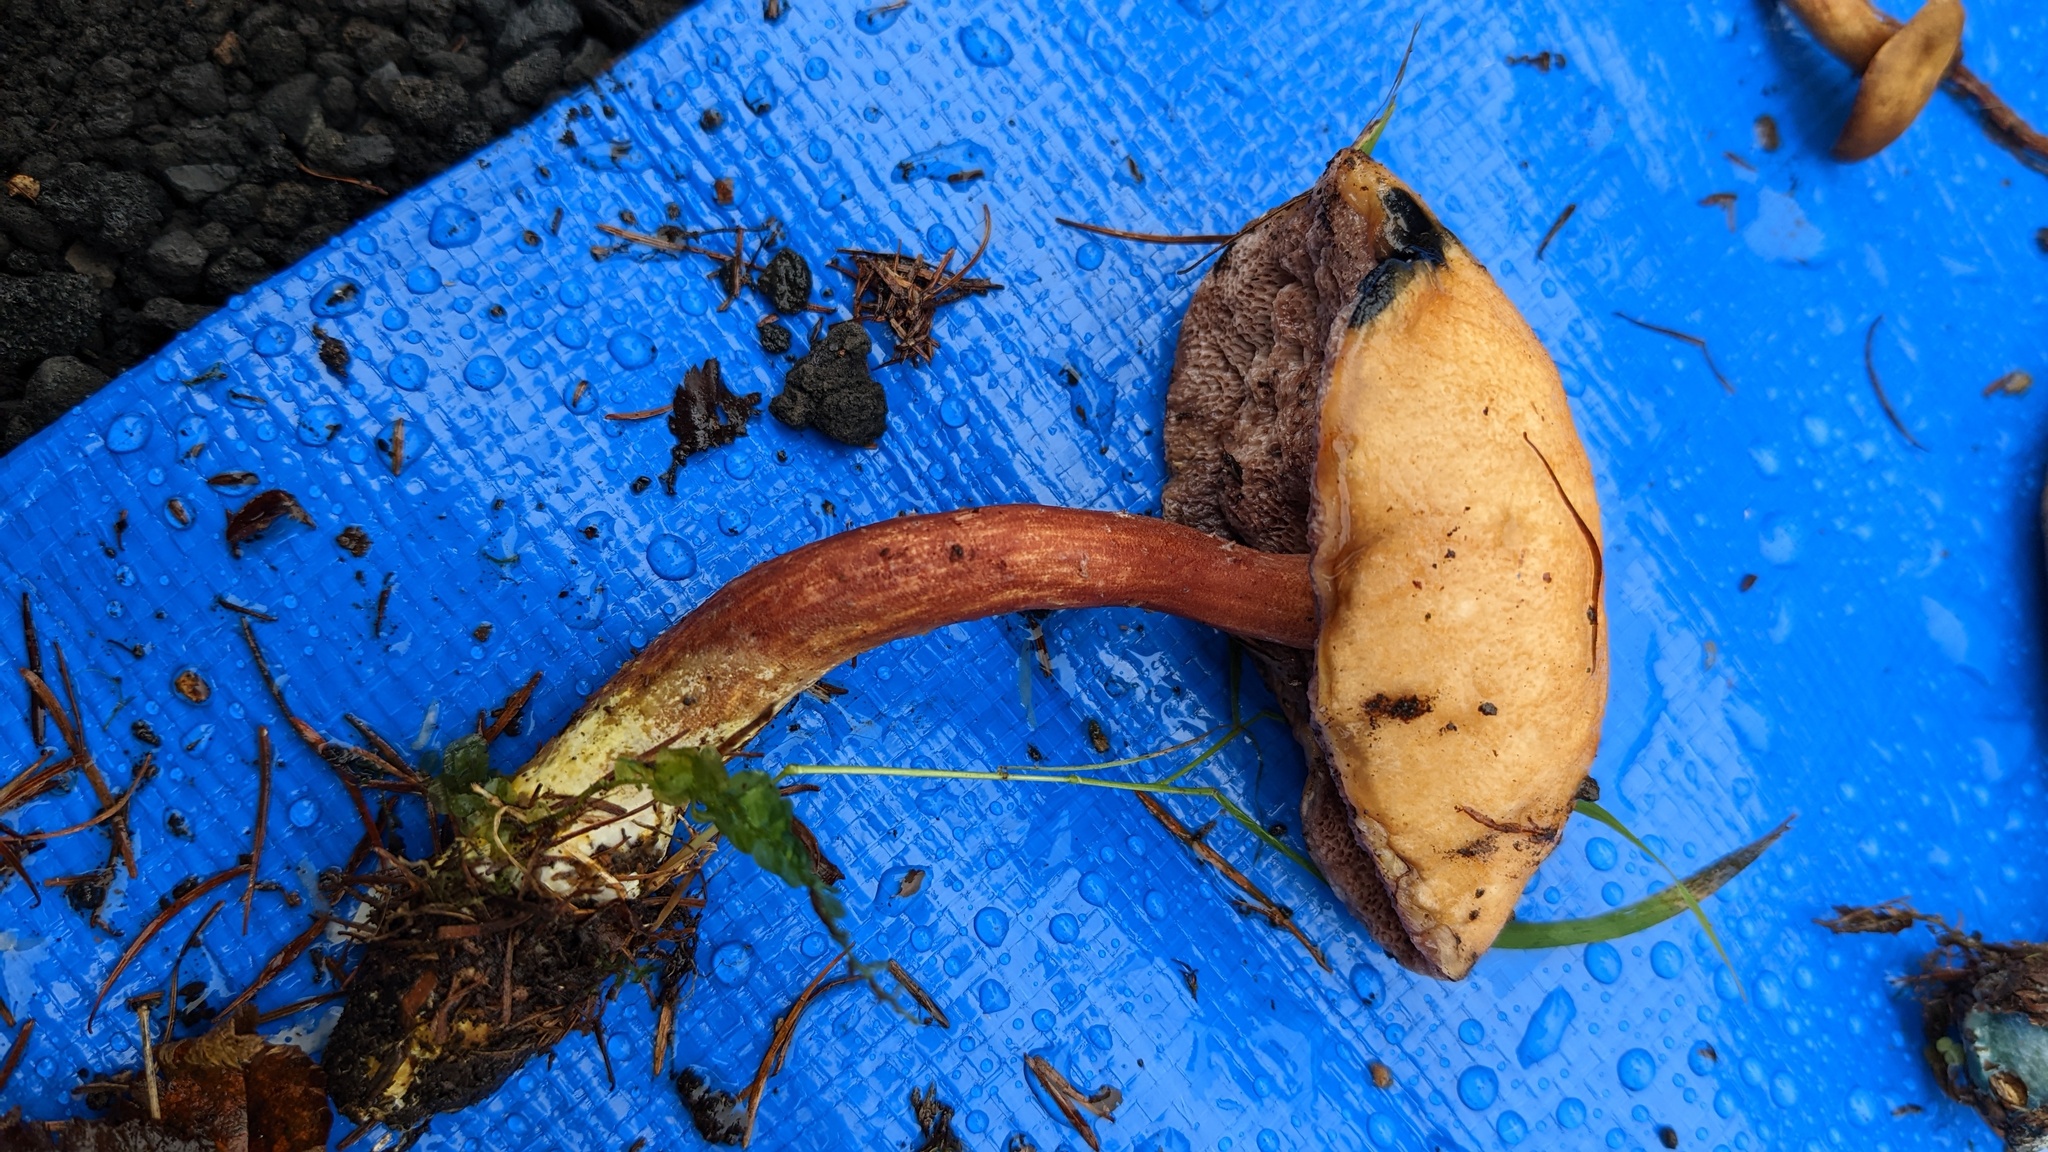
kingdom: Fungi
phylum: Basidiomycota
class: Agaricomycetes
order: Boletales
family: Boletaceae
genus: Austroboletus
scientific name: Austroboletus gracilis
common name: Graceful bolete
